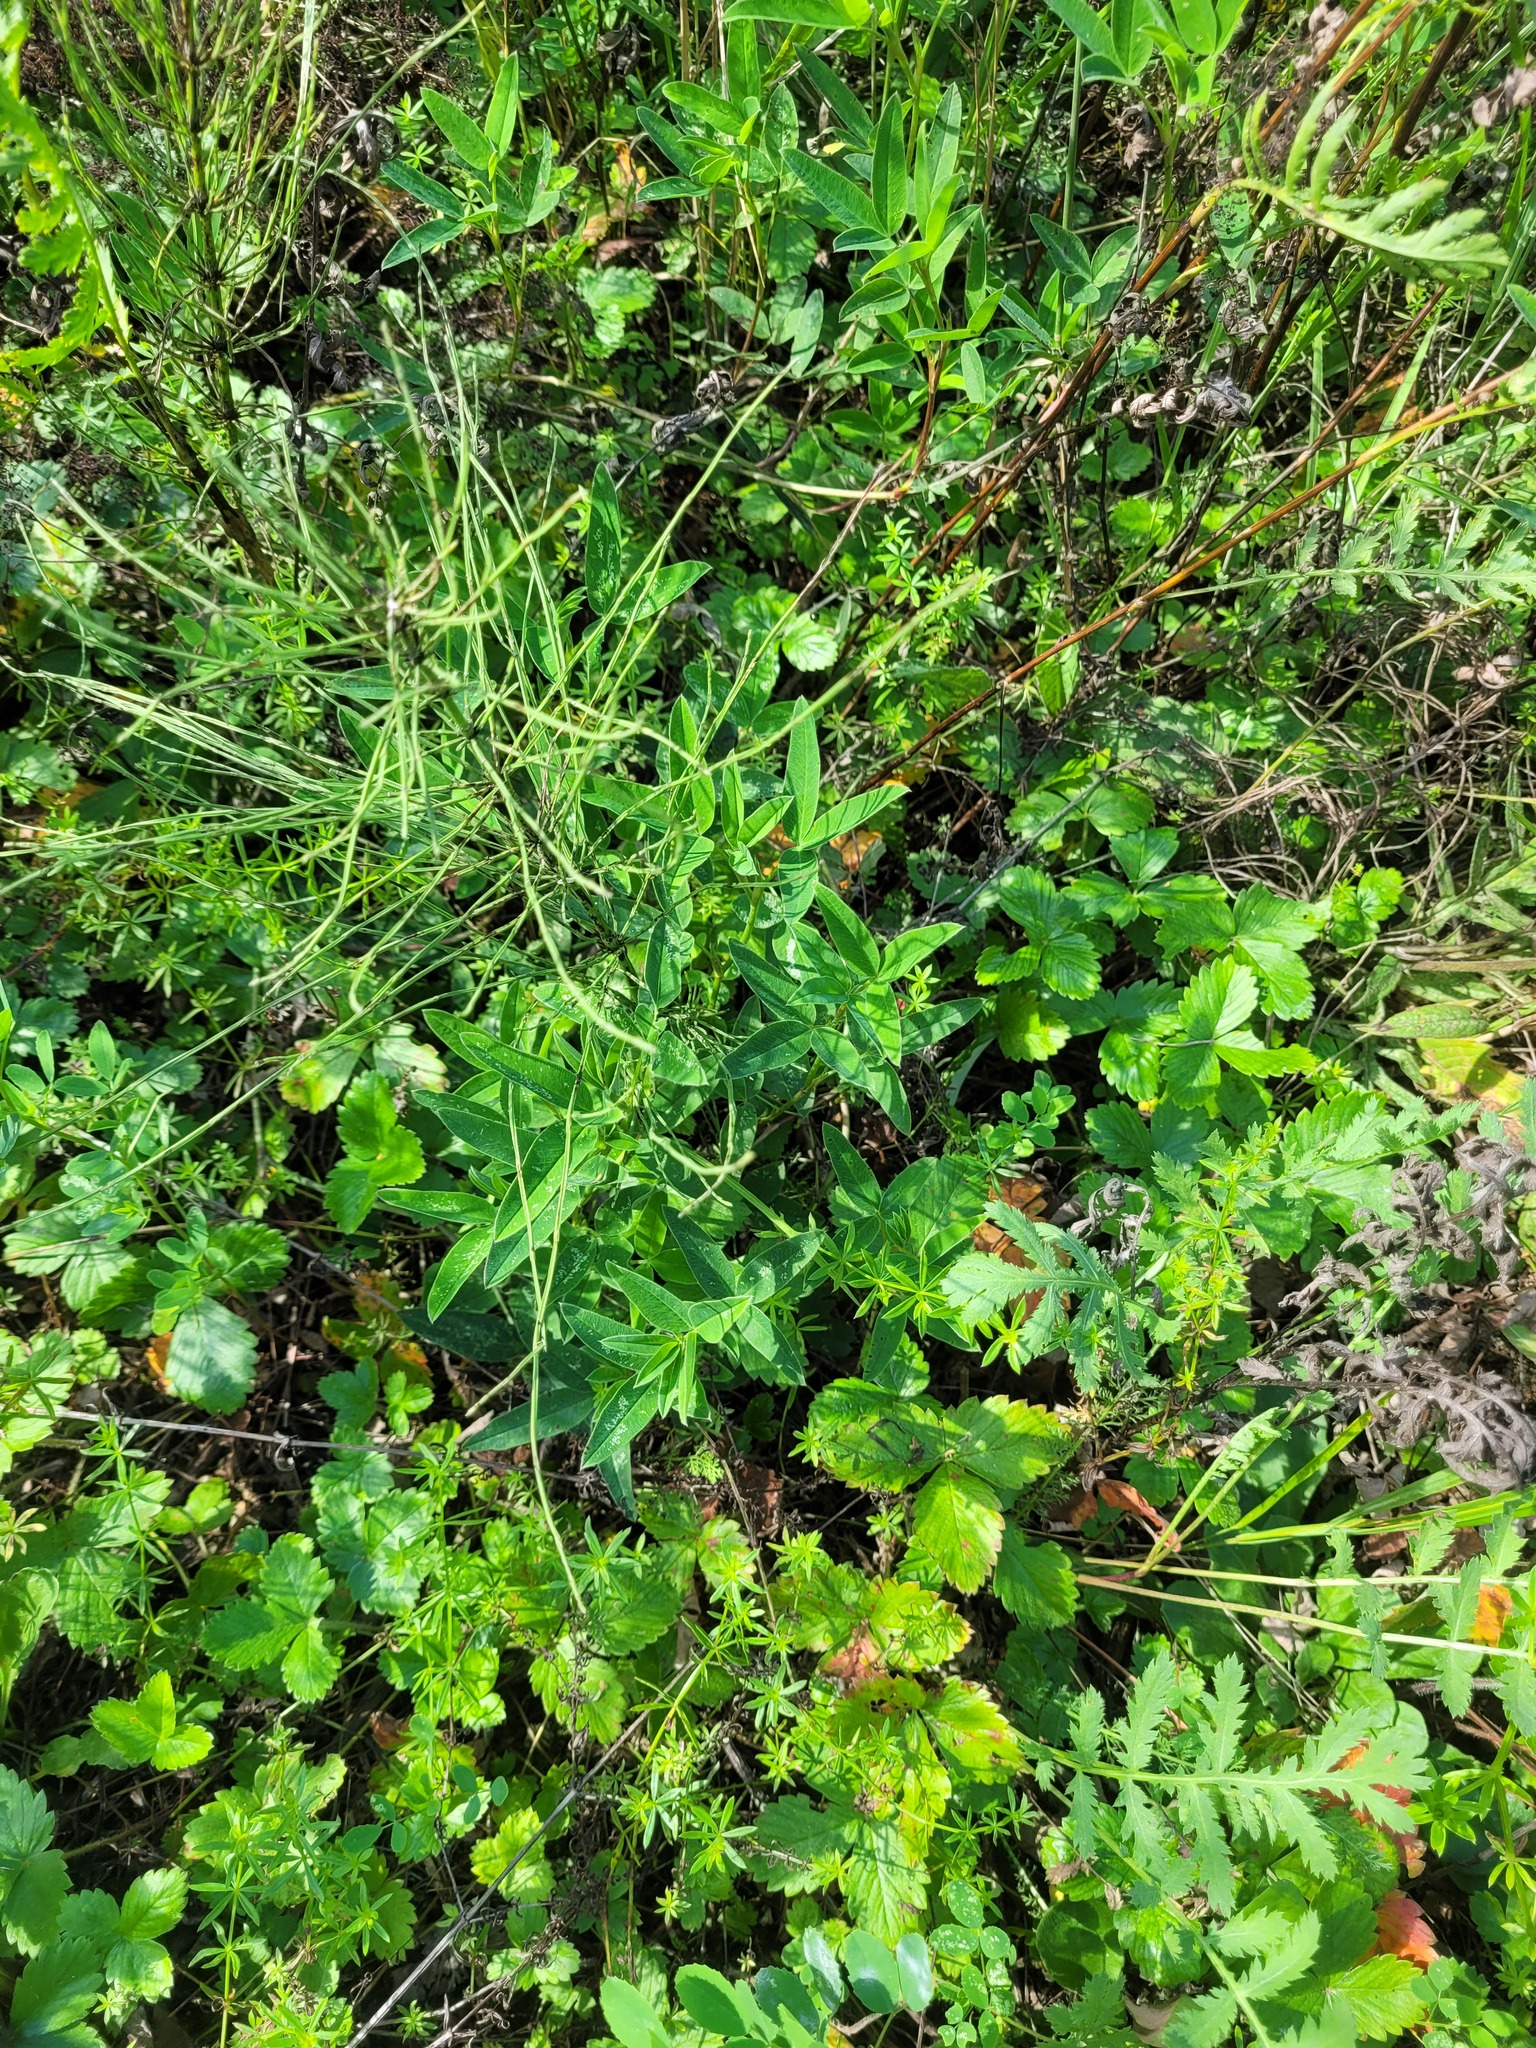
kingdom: Plantae
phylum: Tracheophyta
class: Magnoliopsida
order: Fabales
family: Fabaceae
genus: Trifolium
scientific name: Trifolium medium
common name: Zigzag clover
